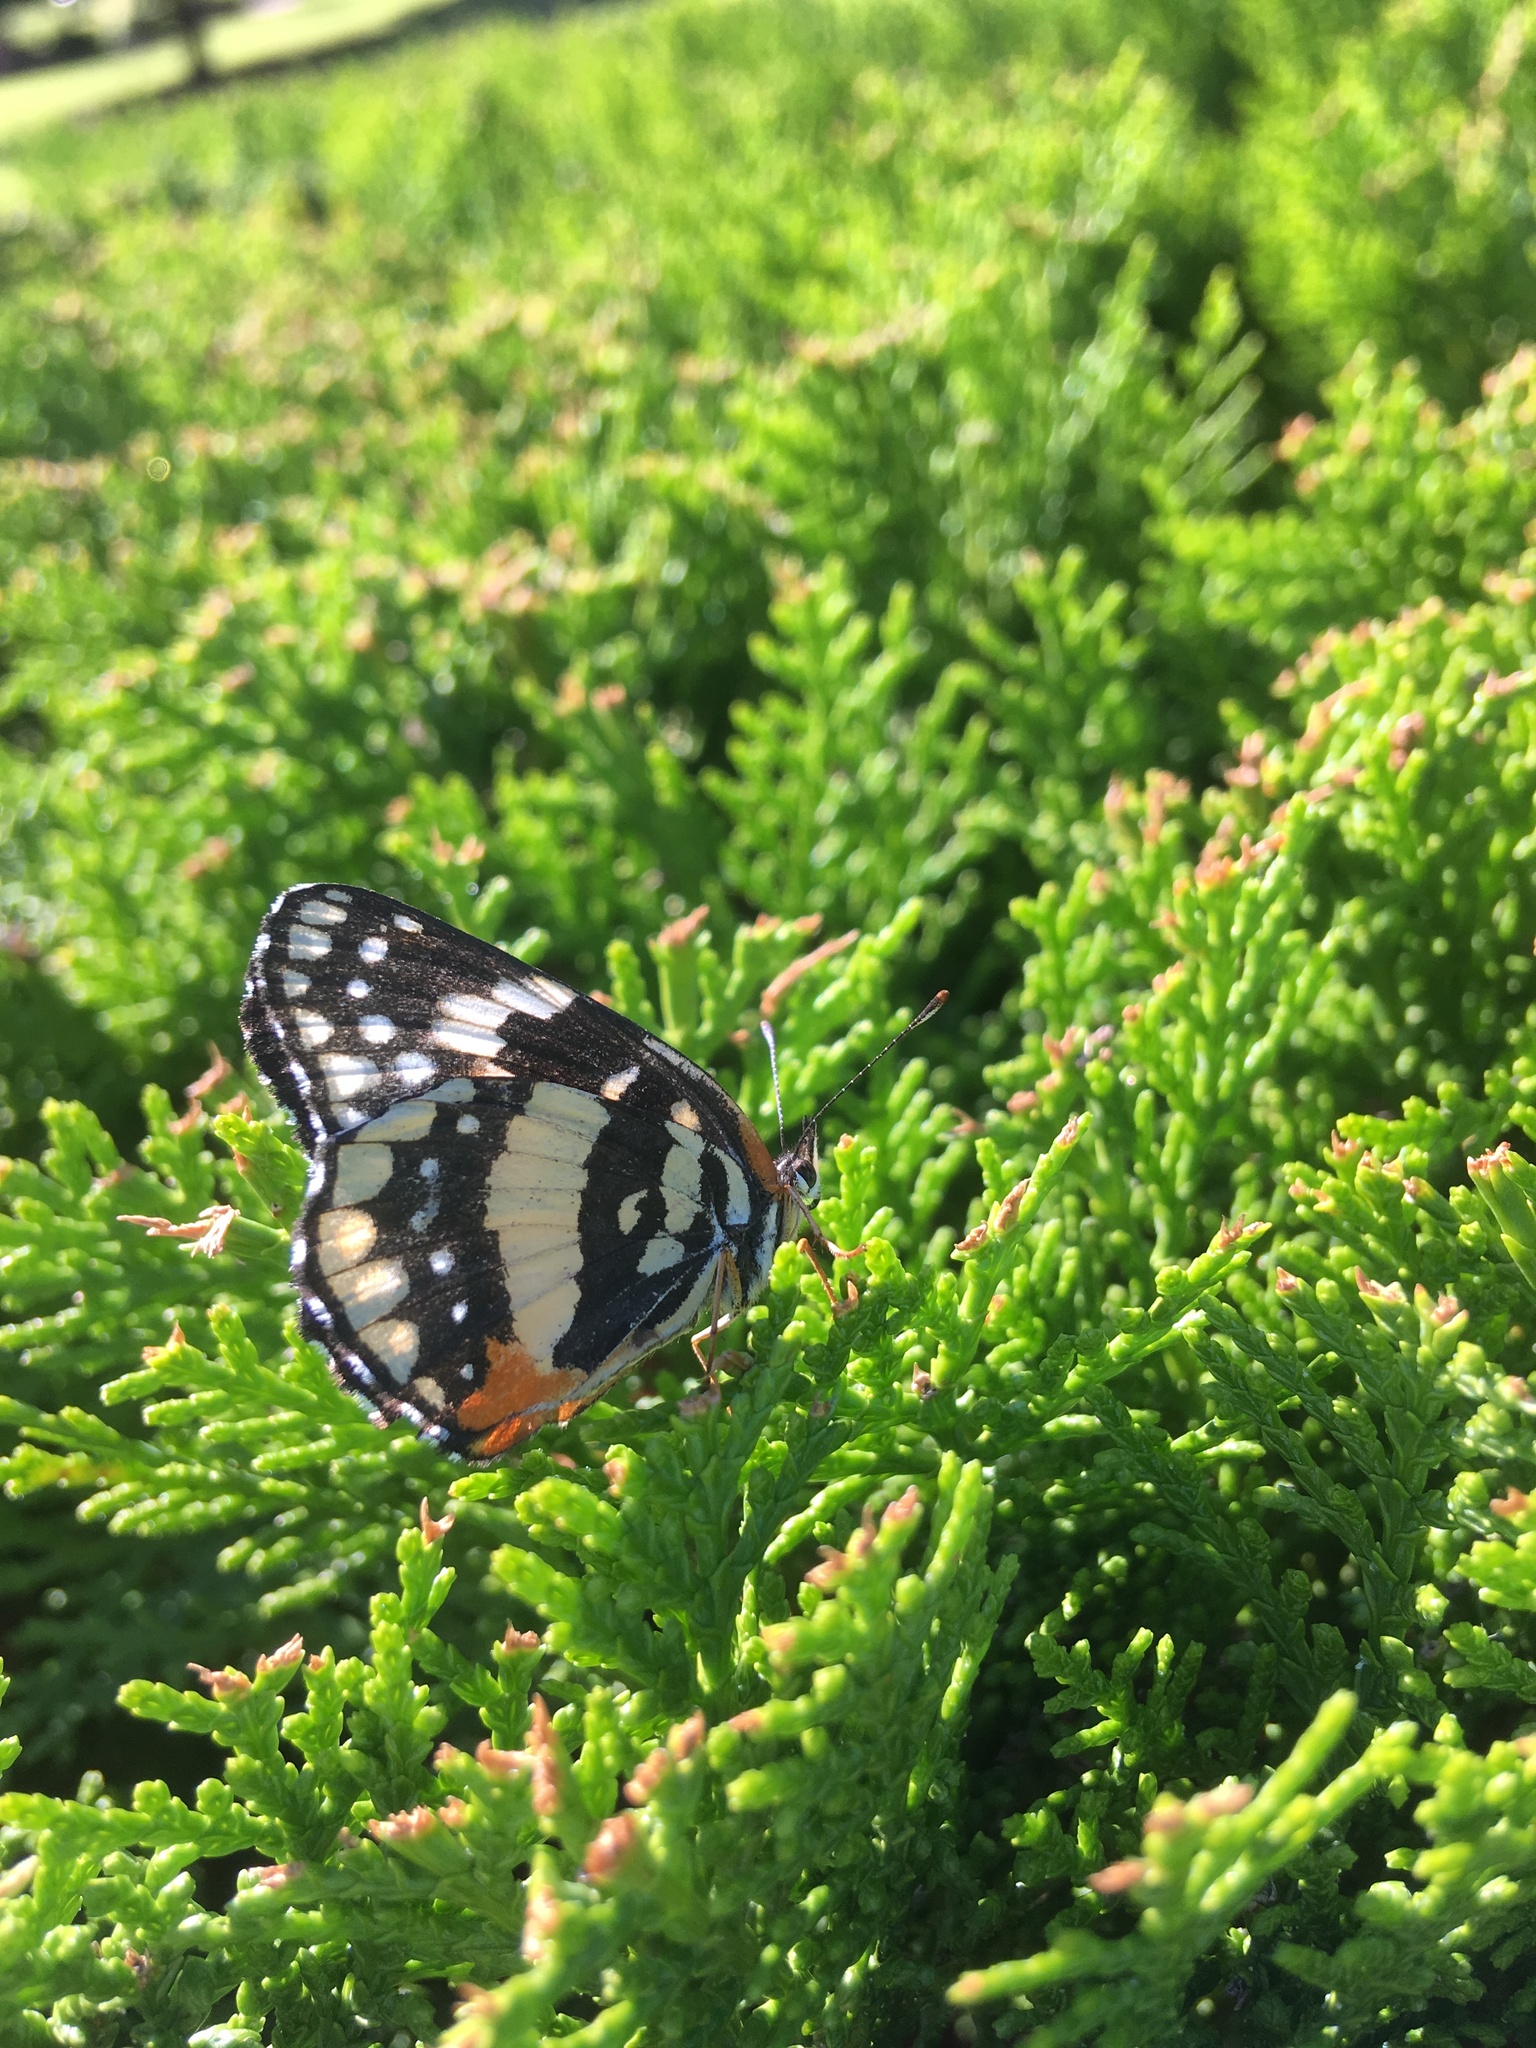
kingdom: Animalia
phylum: Arthropoda
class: Insecta
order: Lepidoptera
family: Nymphalidae
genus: Chlosyne
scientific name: Chlosyne lacinia
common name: Bordered patch
